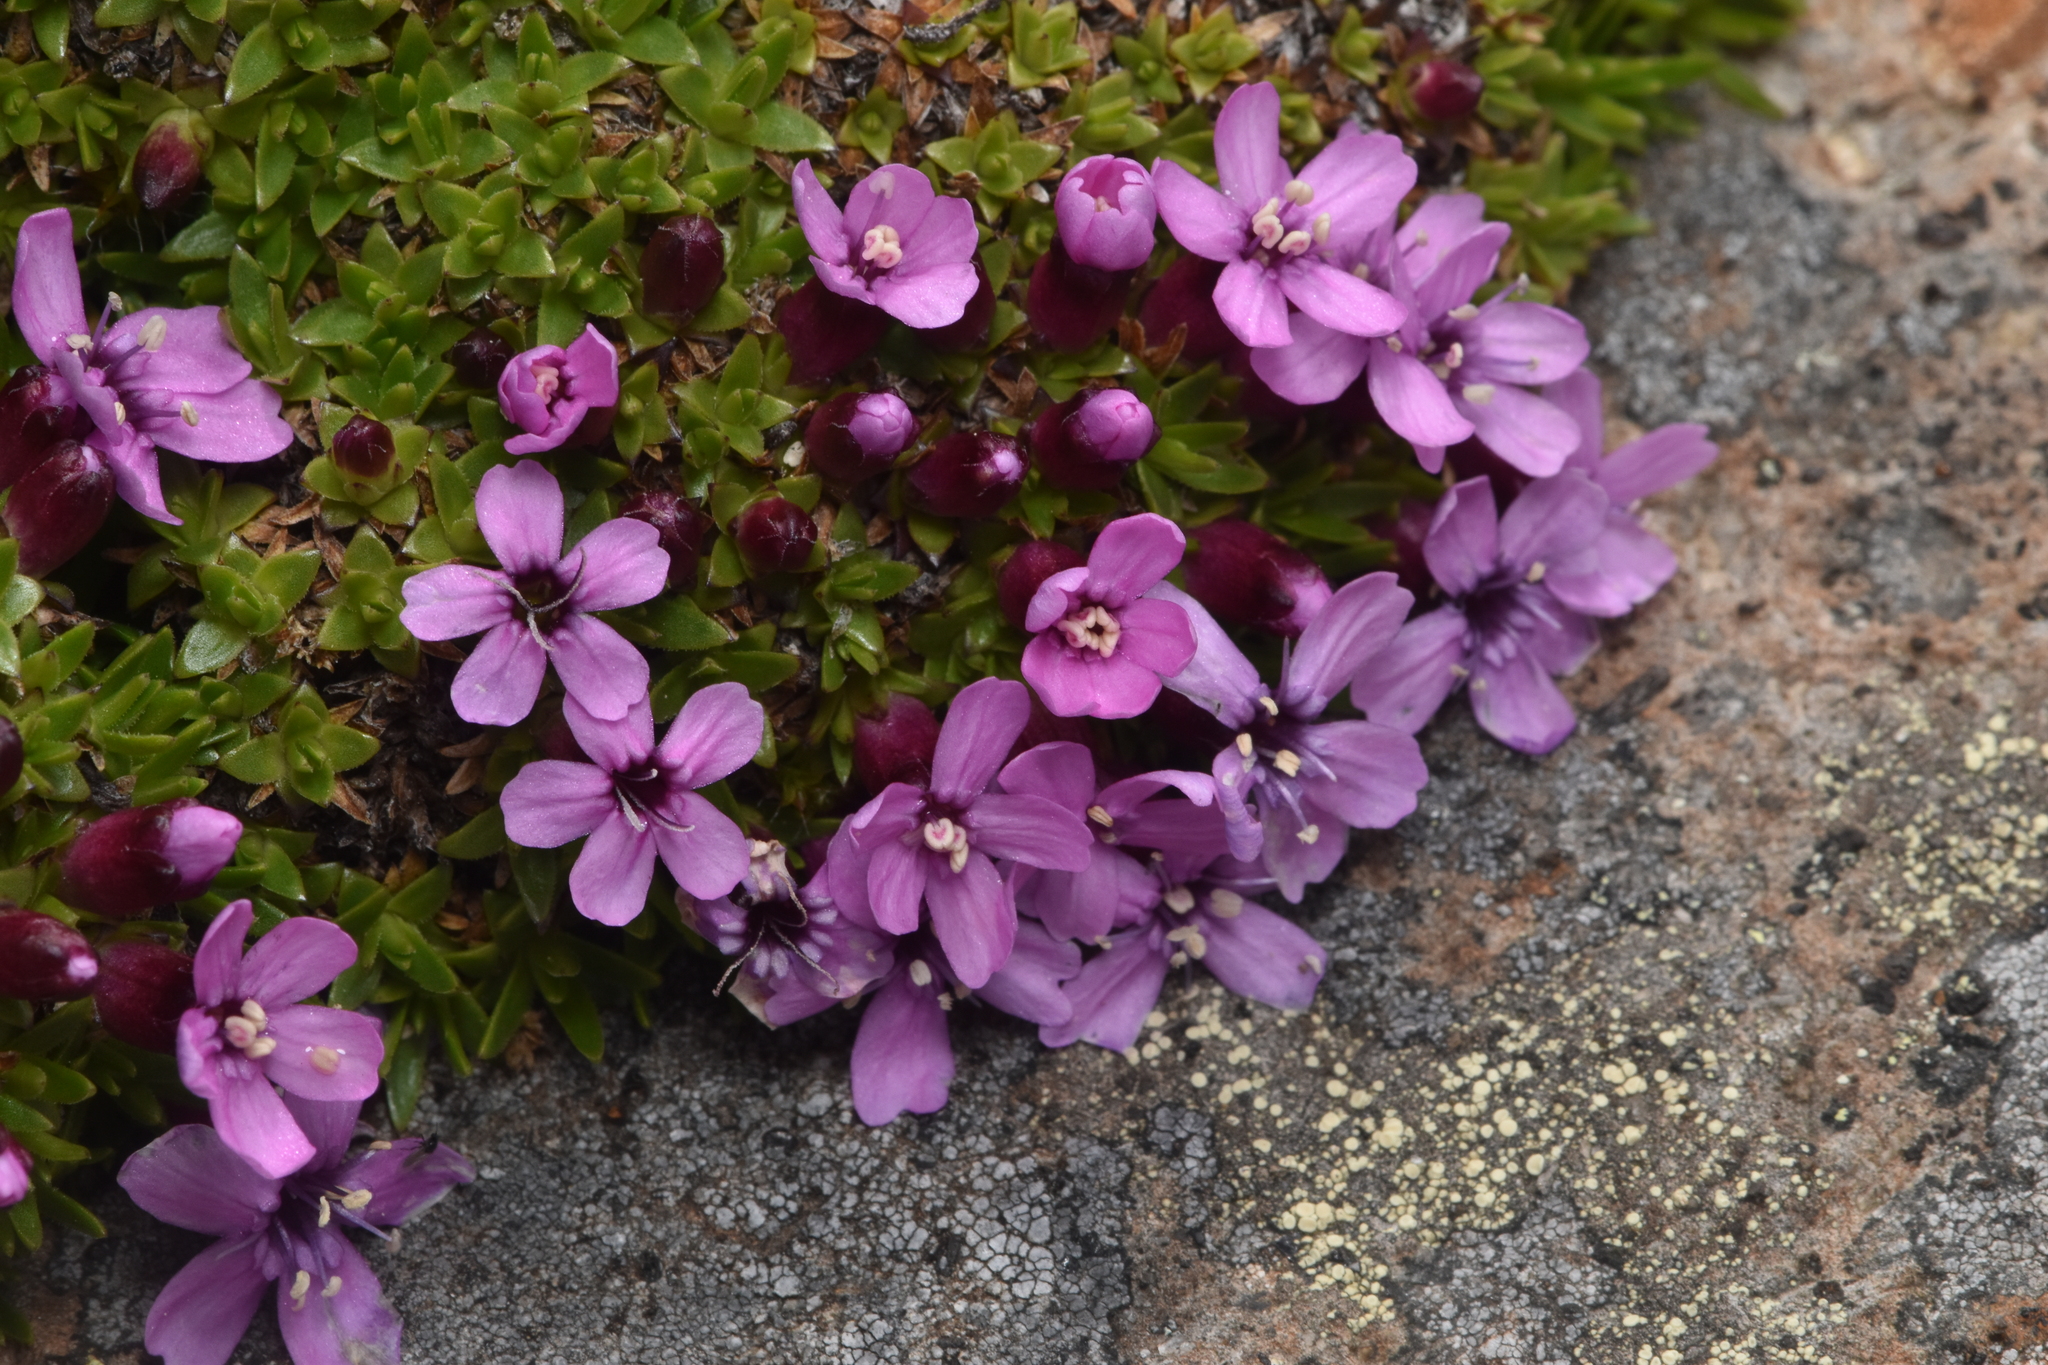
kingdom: Plantae
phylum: Tracheophyta
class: Magnoliopsida
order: Caryophyllales
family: Caryophyllaceae
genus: Silene
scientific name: Silene acaulis
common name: Moss campion
